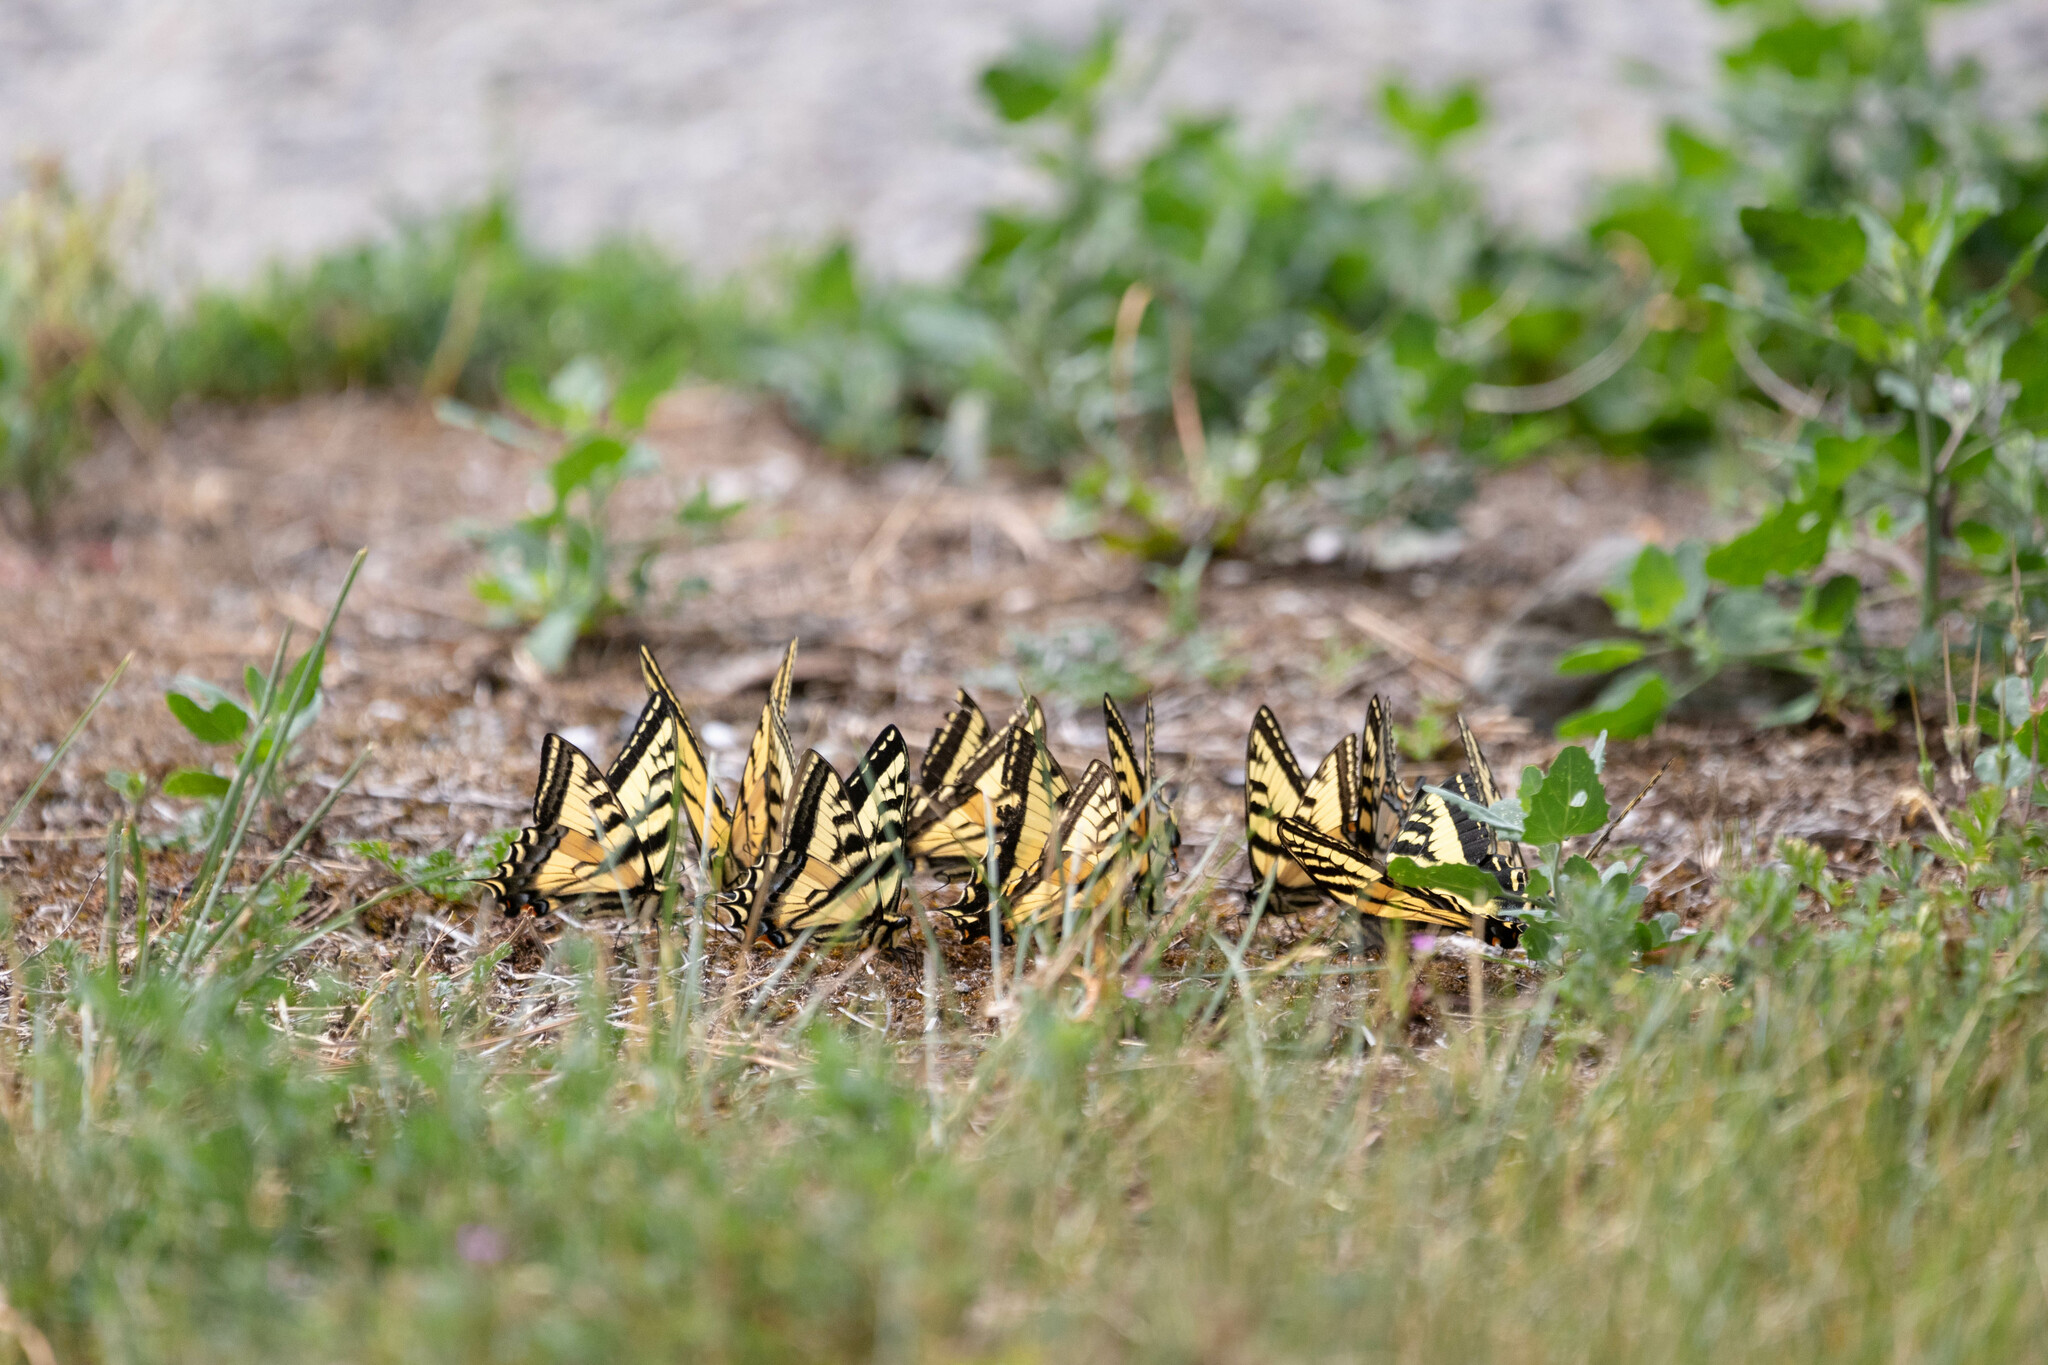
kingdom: Animalia
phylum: Arthropoda
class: Insecta
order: Lepidoptera
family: Papilionidae
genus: Papilio
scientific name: Papilio rutulus
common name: Western tiger swallowtail
